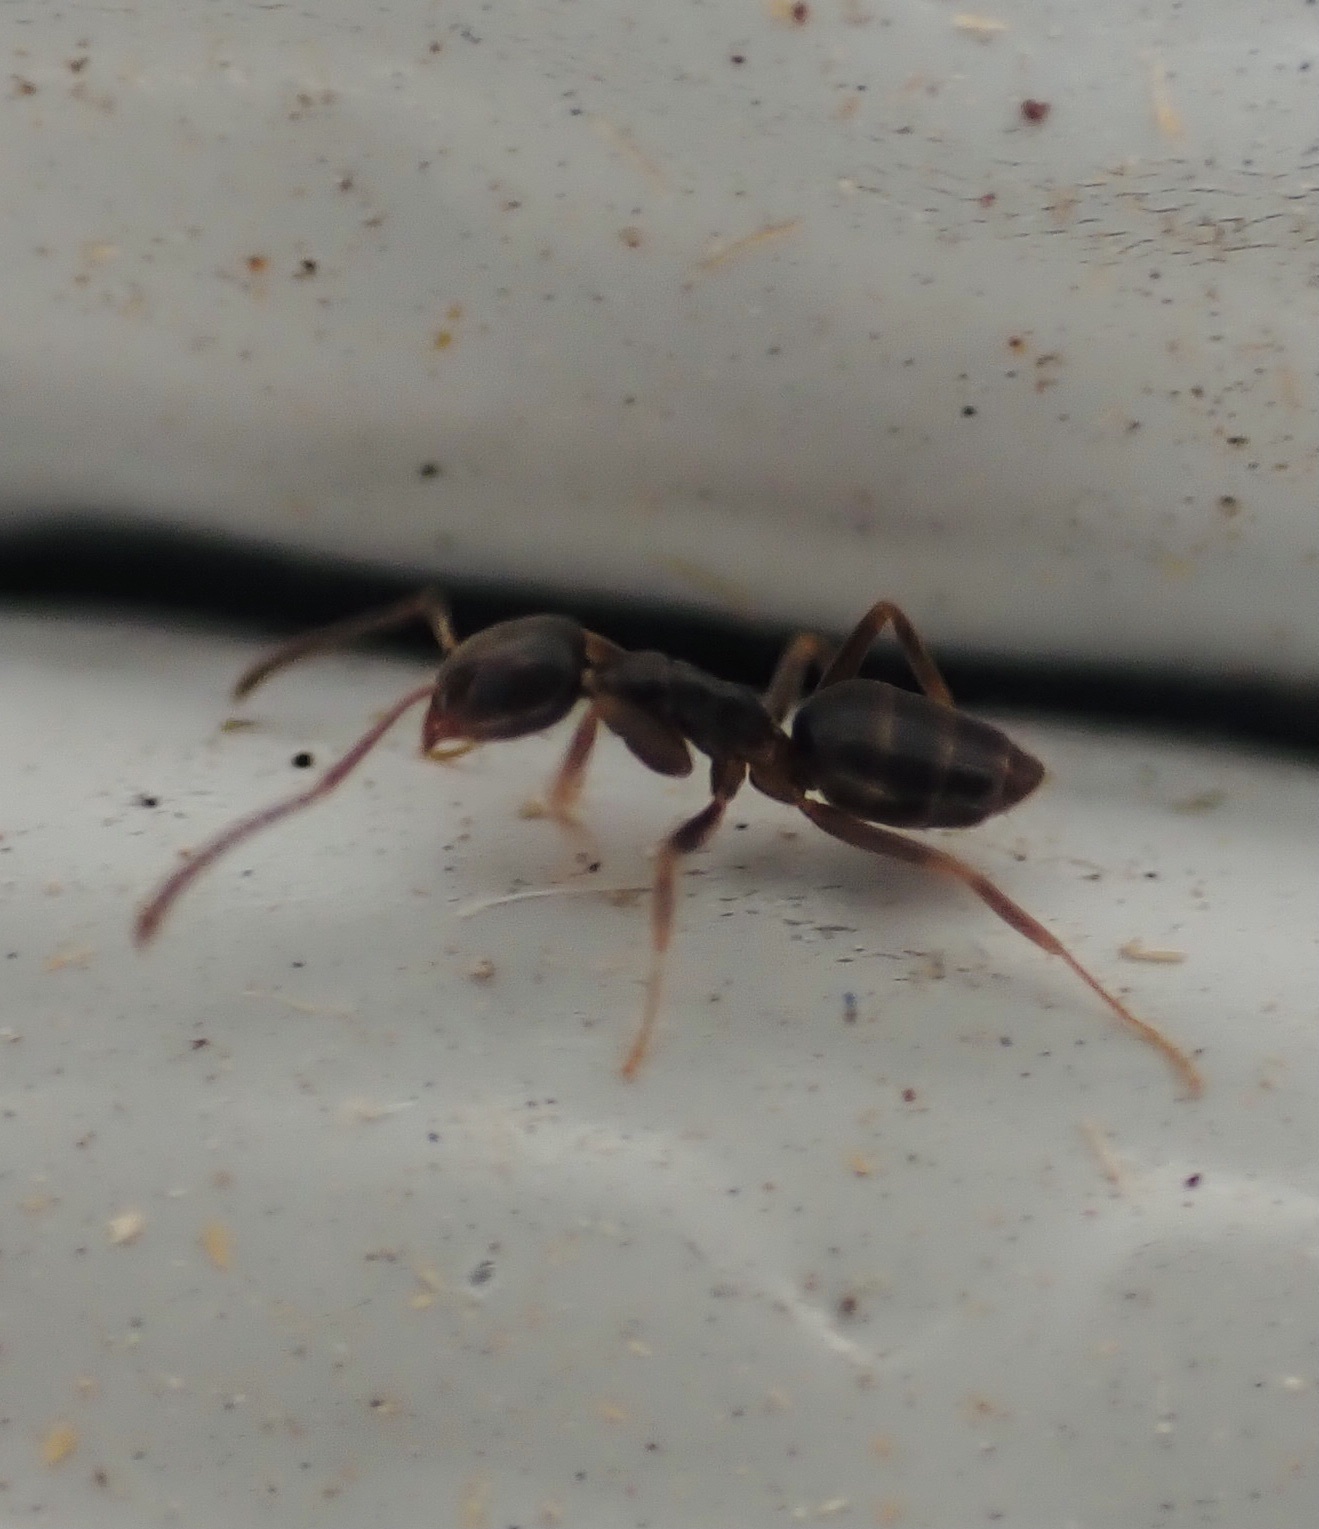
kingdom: Animalia
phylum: Arthropoda
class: Insecta
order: Hymenoptera
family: Formicidae
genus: Tapinoma
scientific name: Tapinoma sessile
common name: Odorous house ant
